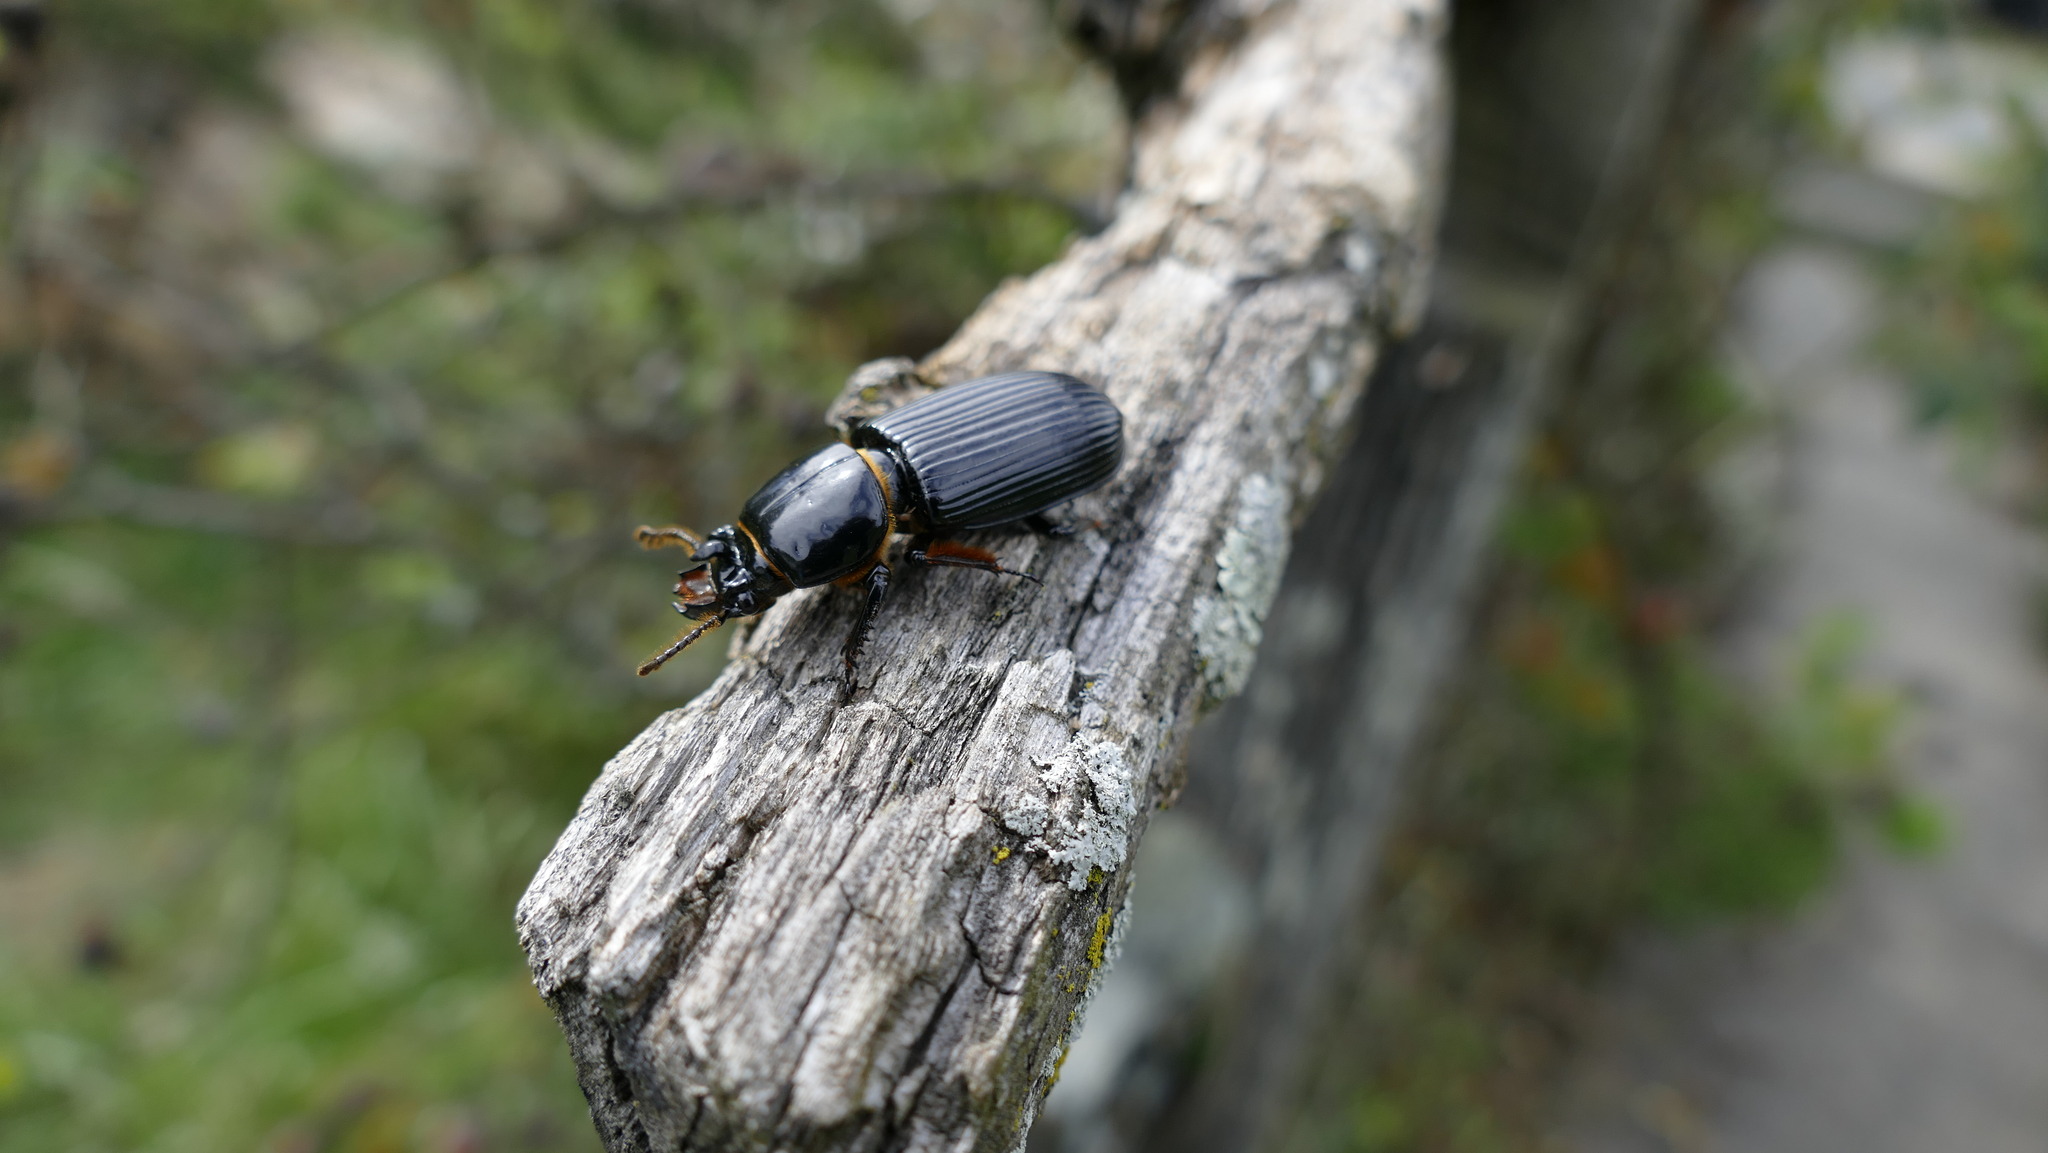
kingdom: Animalia
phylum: Arthropoda
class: Insecta
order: Coleoptera
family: Passalidae
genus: Odontotaenius
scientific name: Odontotaenius disjunctus
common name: Patent leather beetle
